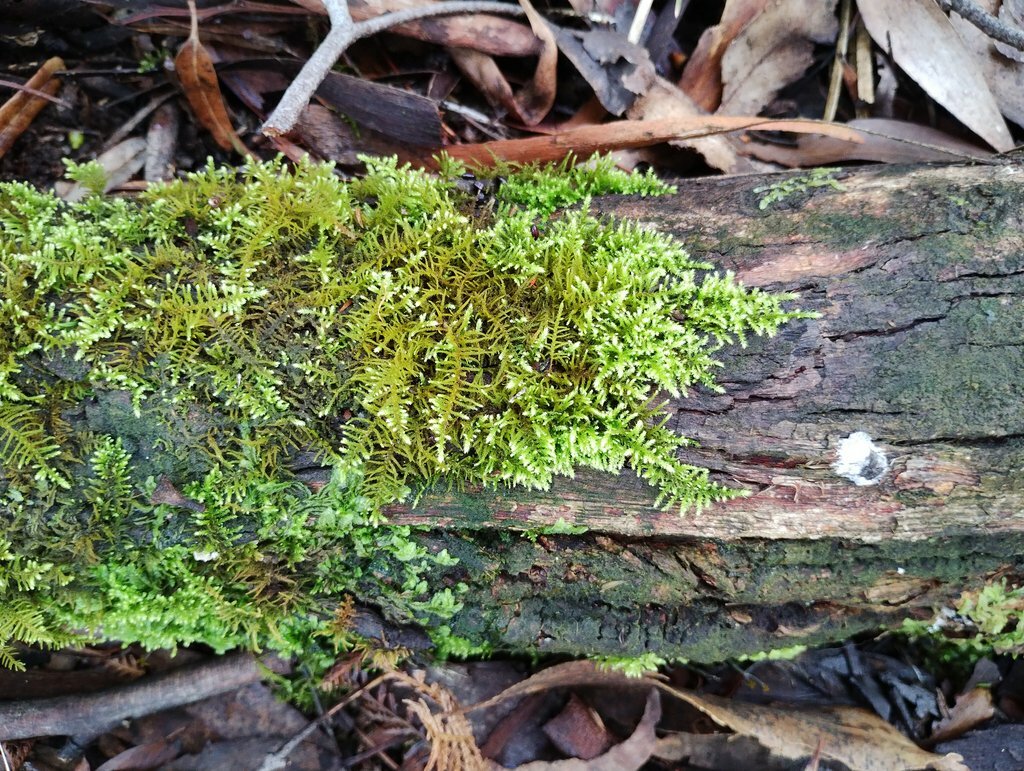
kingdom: Plantae
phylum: Bryophyta
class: Bryopsida
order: Hypnales
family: Thuidiaceae
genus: Thuidiopsis
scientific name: Thuidiopsis sparsa
